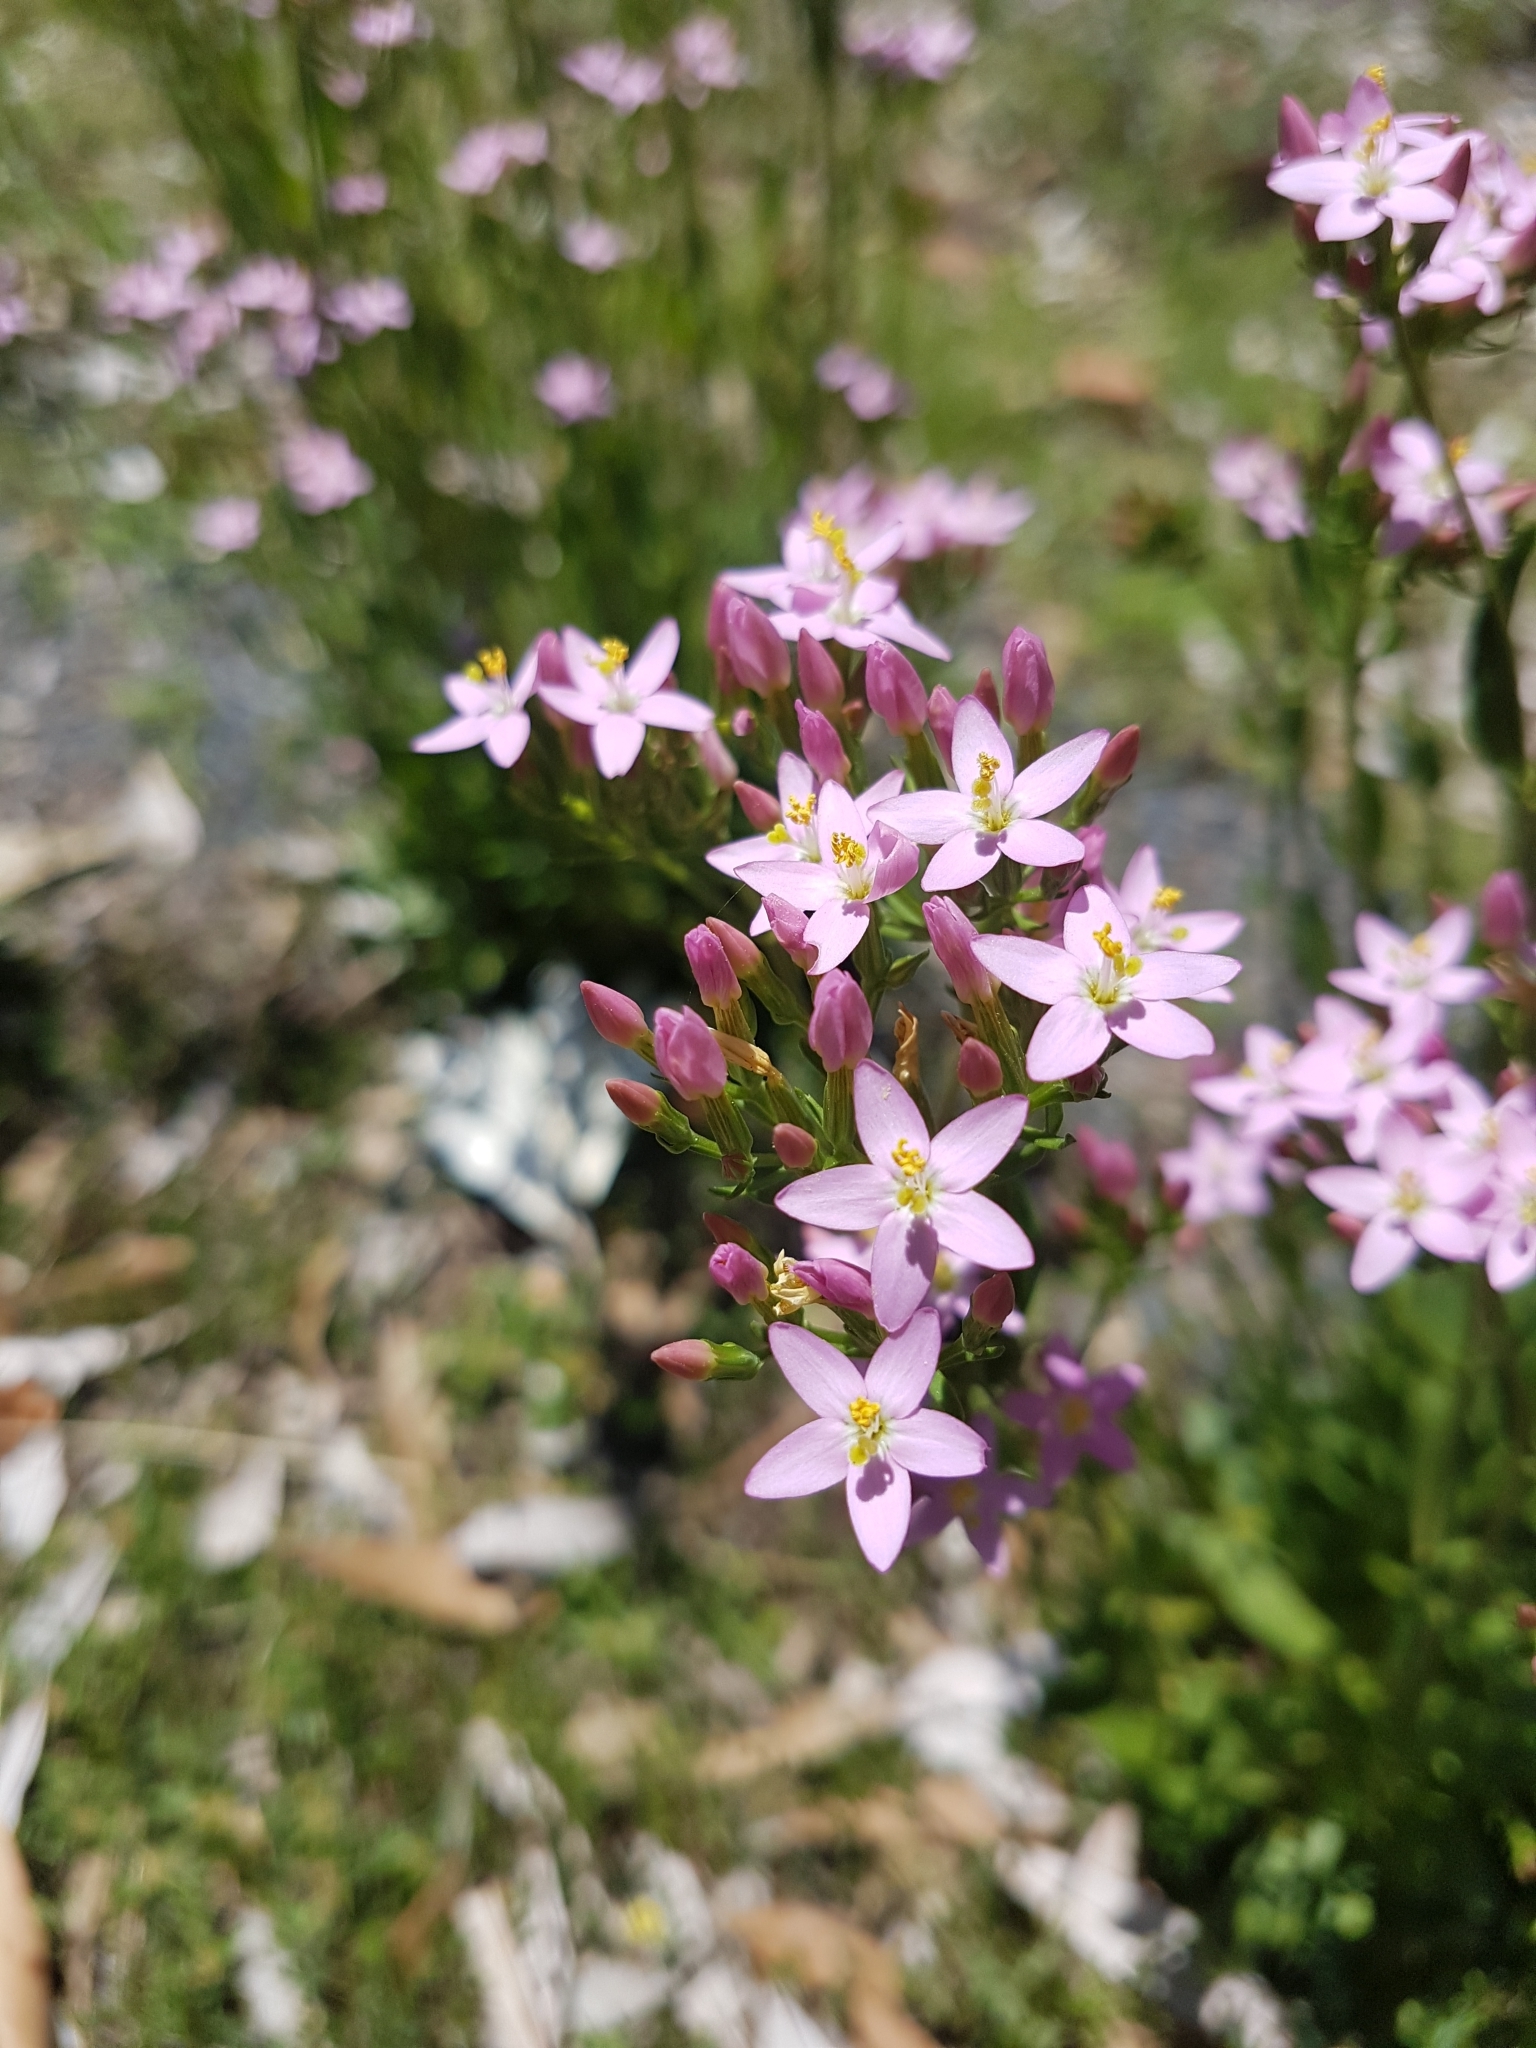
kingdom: Plantae
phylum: Tracheophyta
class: Magnoliopsida
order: Gentianales
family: Gentianaceae
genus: Centaurium
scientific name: Centaurium erythraea
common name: Common centaury
